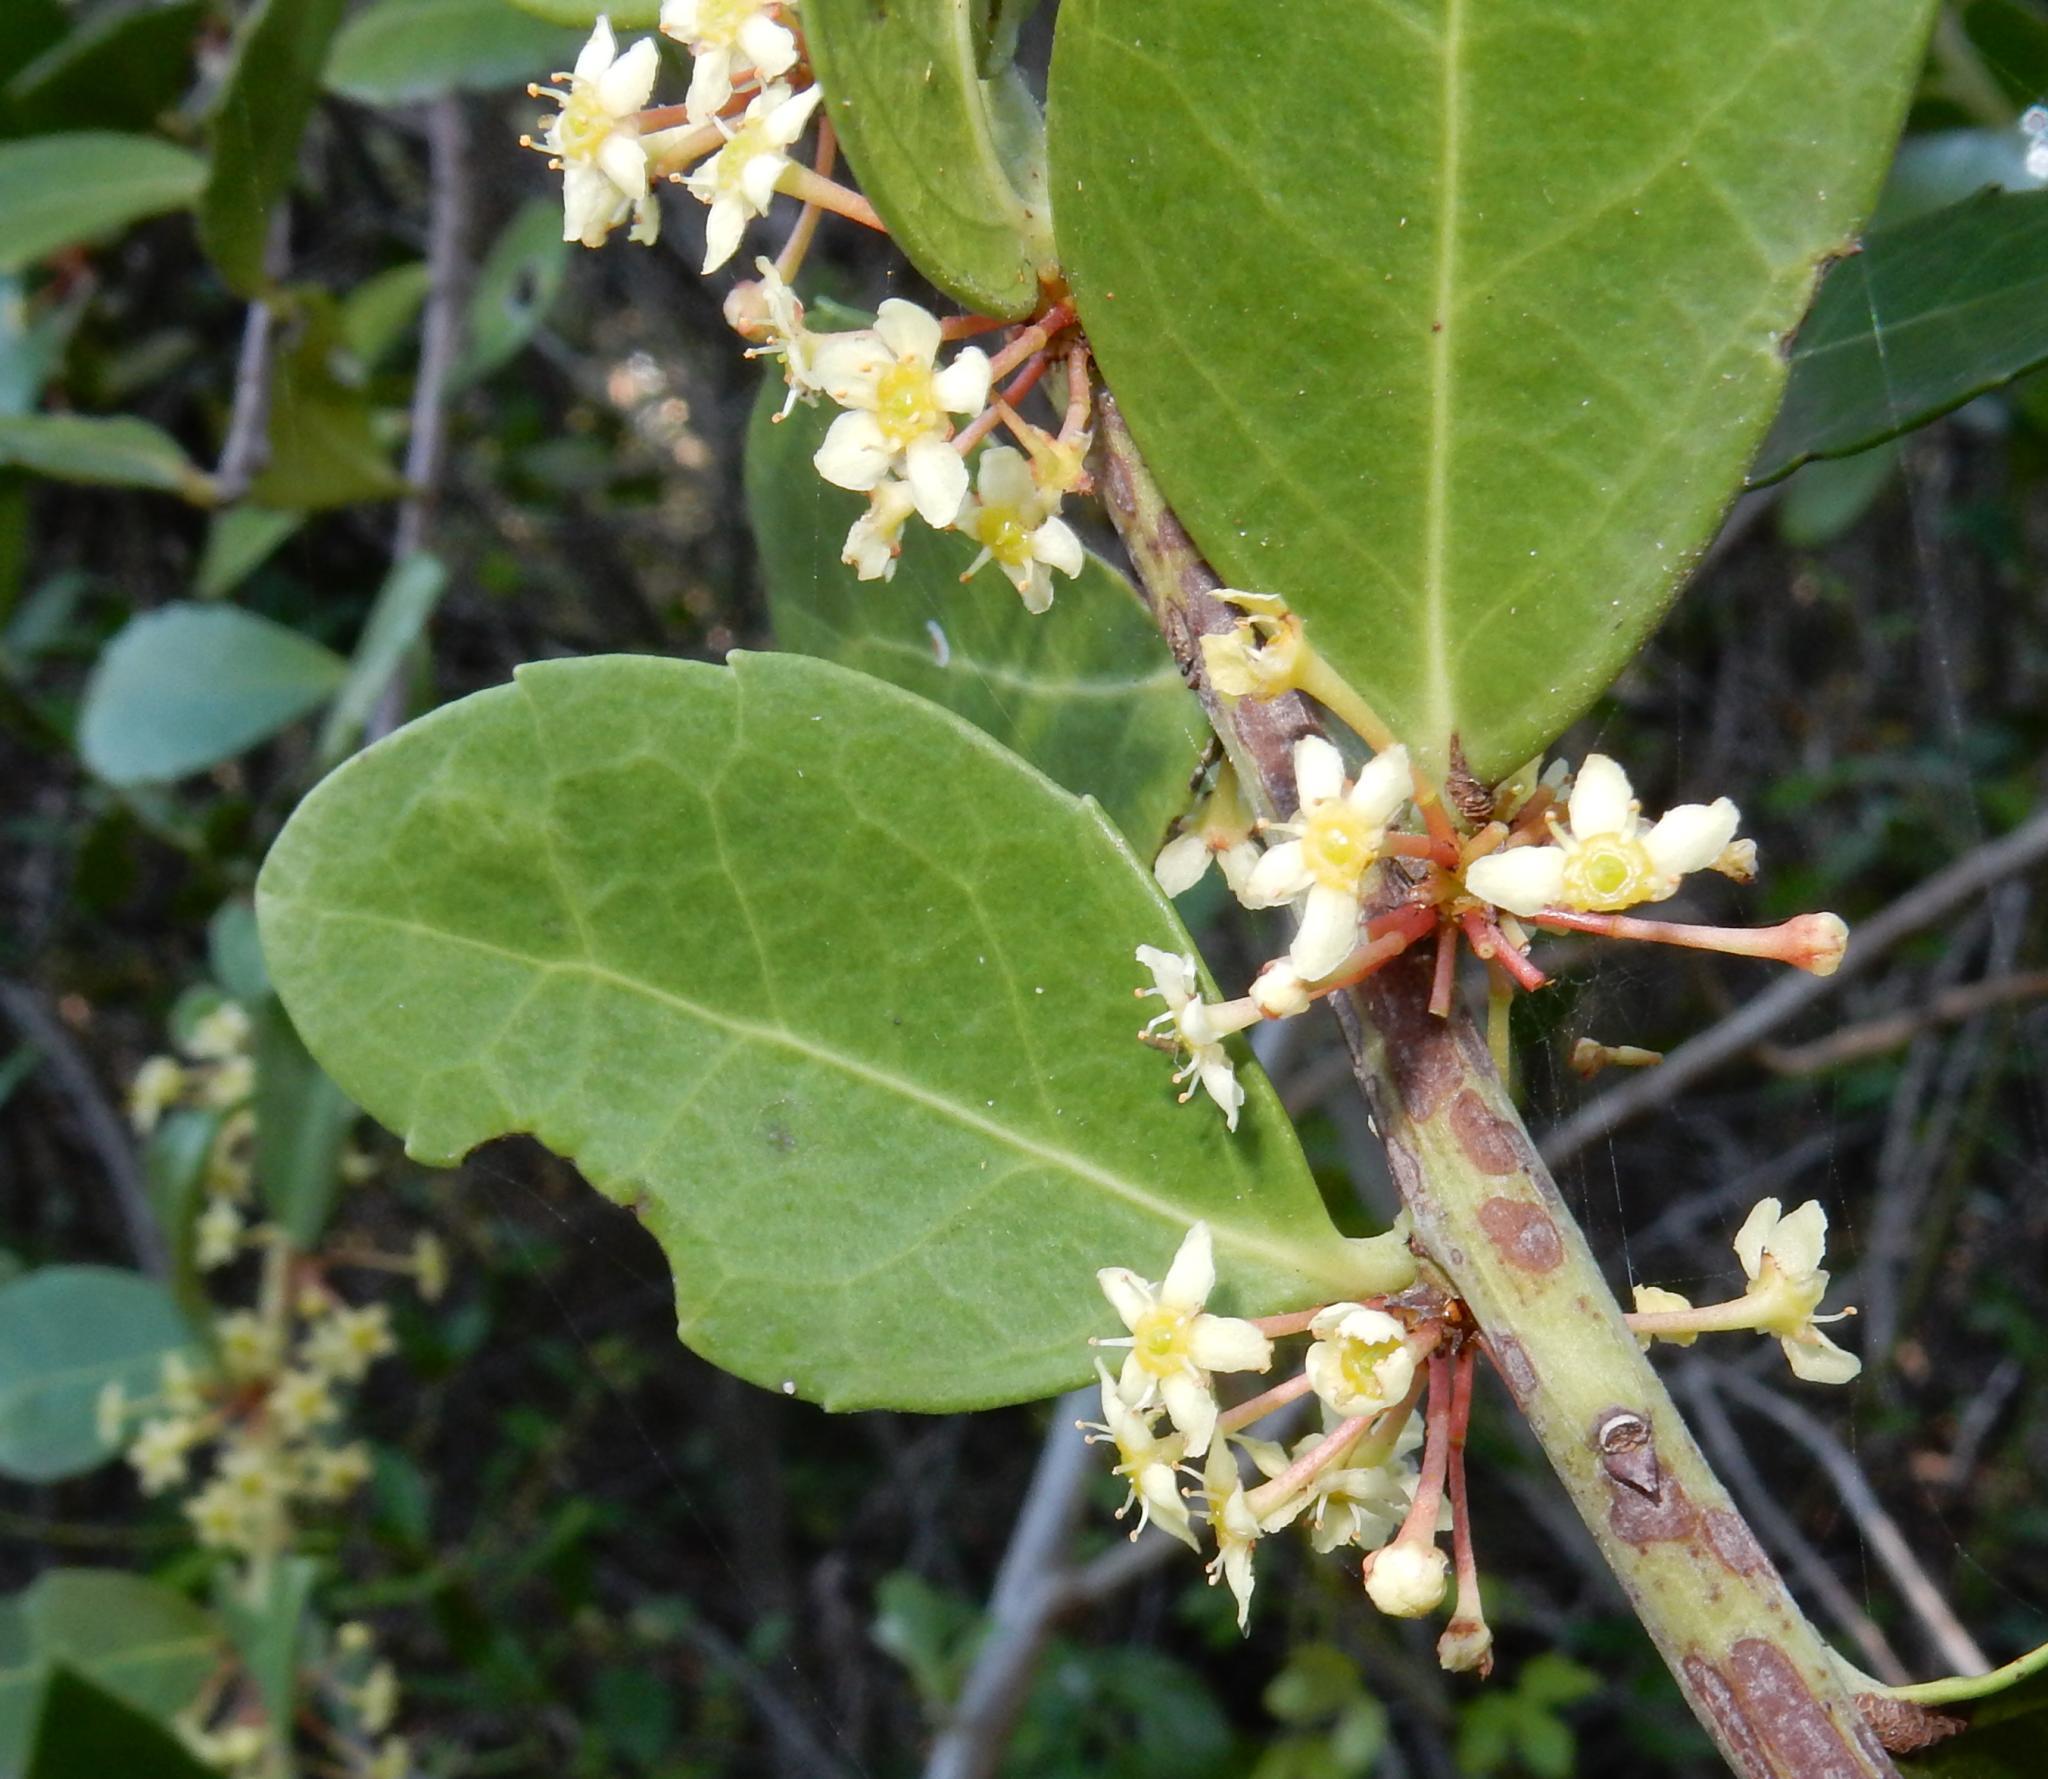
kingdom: Plantae
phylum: Tracheophyta
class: Magnoliopsida
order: Celastrales
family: Celastraceae
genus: Gymnosporia
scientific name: Gymnosporia procumbens
